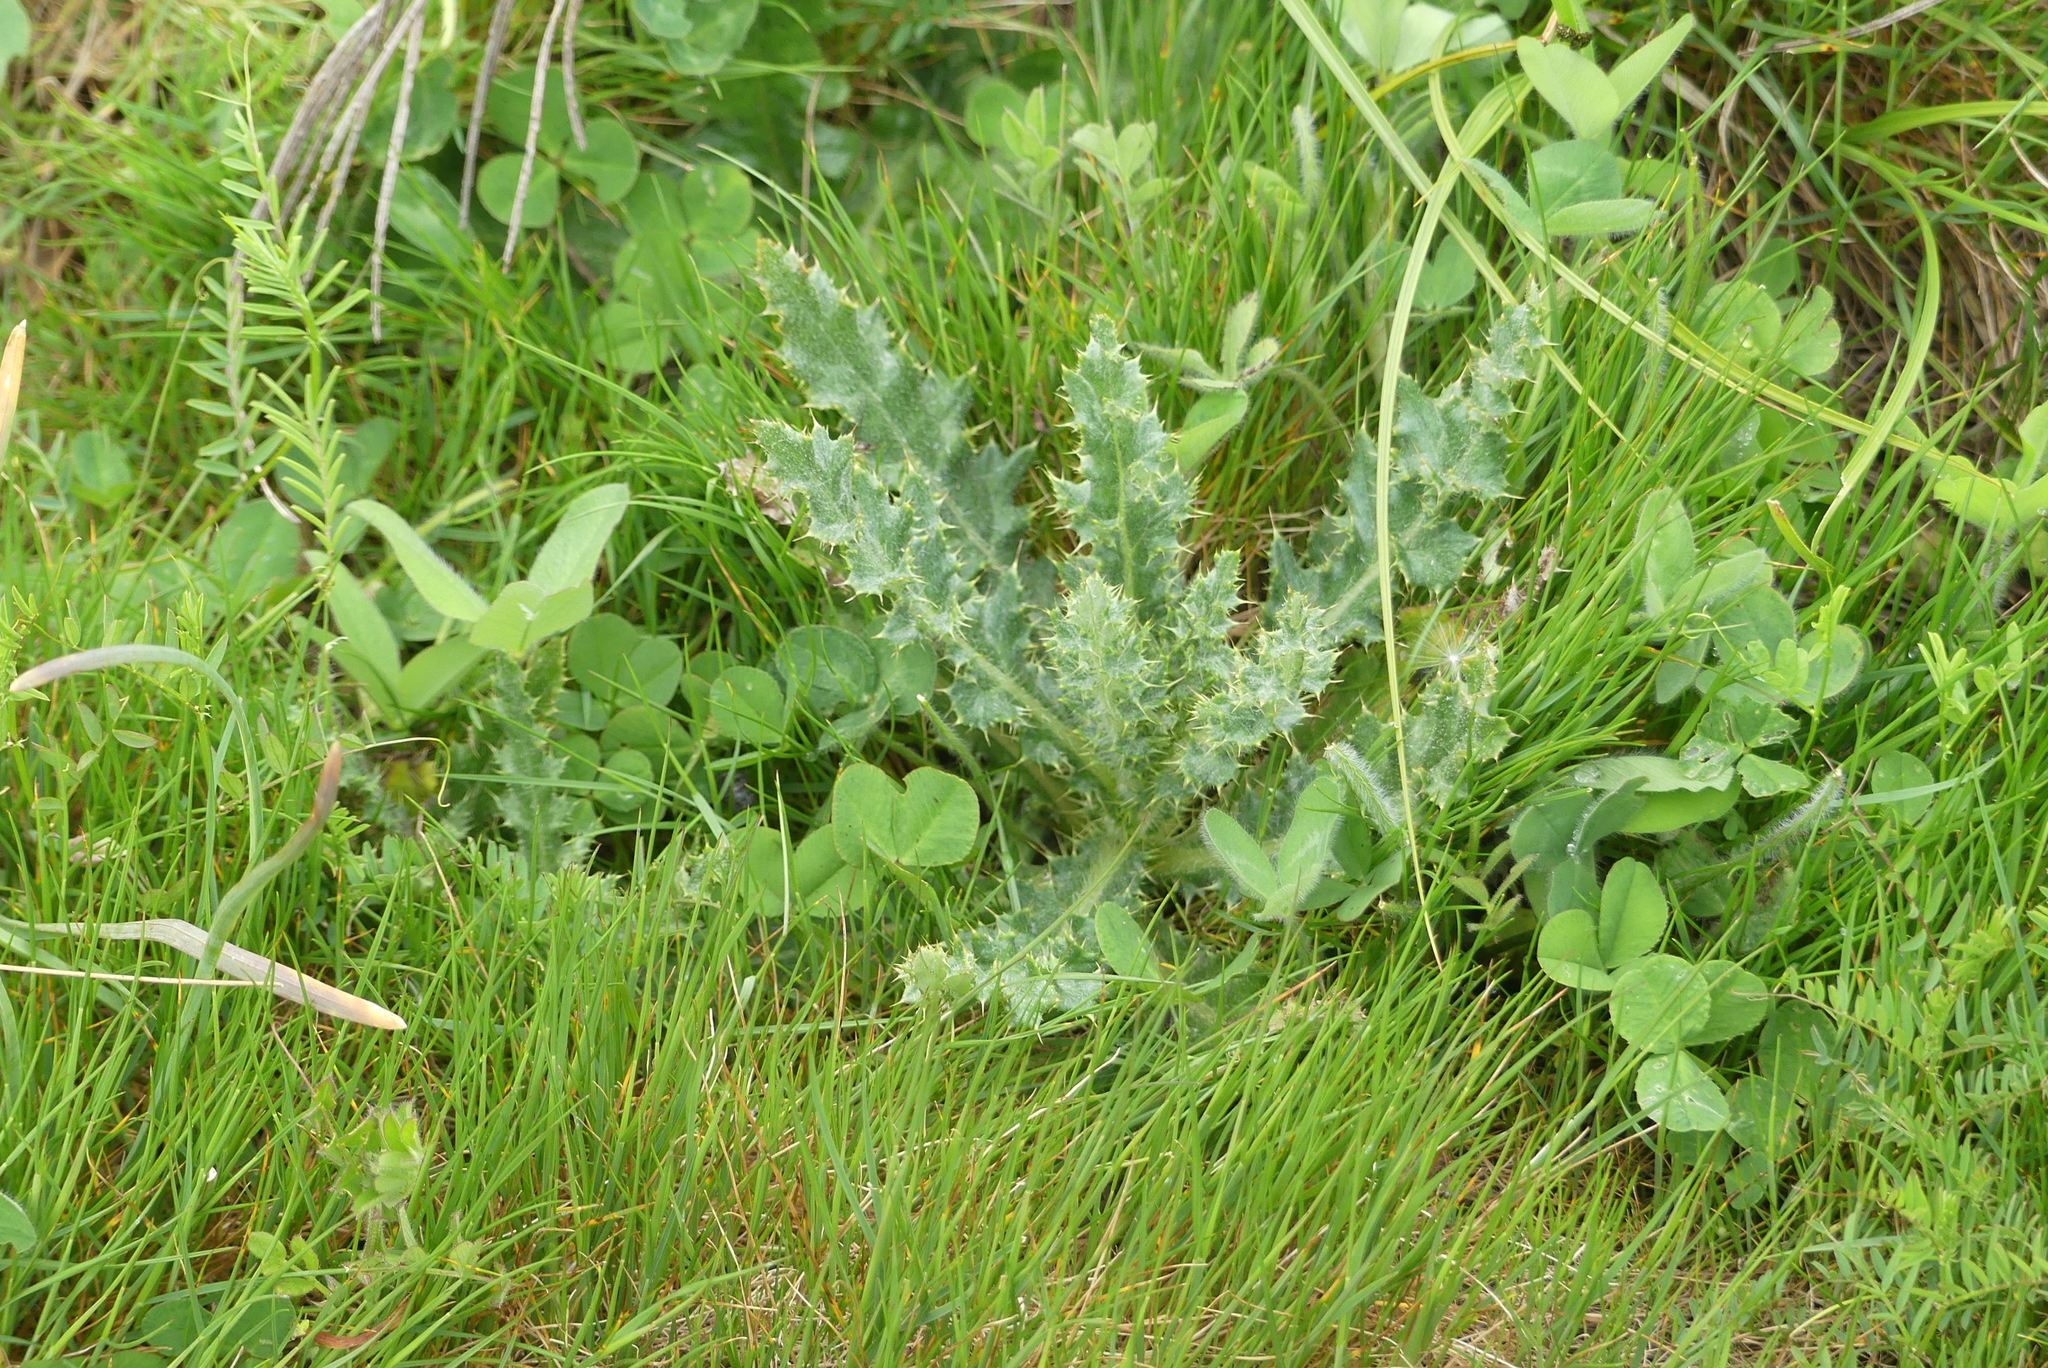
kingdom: Plantae
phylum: Tracheophyta
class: Magnoliopsida
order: Asterales
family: Asteraceae
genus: Cirsium
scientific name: Cirsium arvense
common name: Creeping thistle
